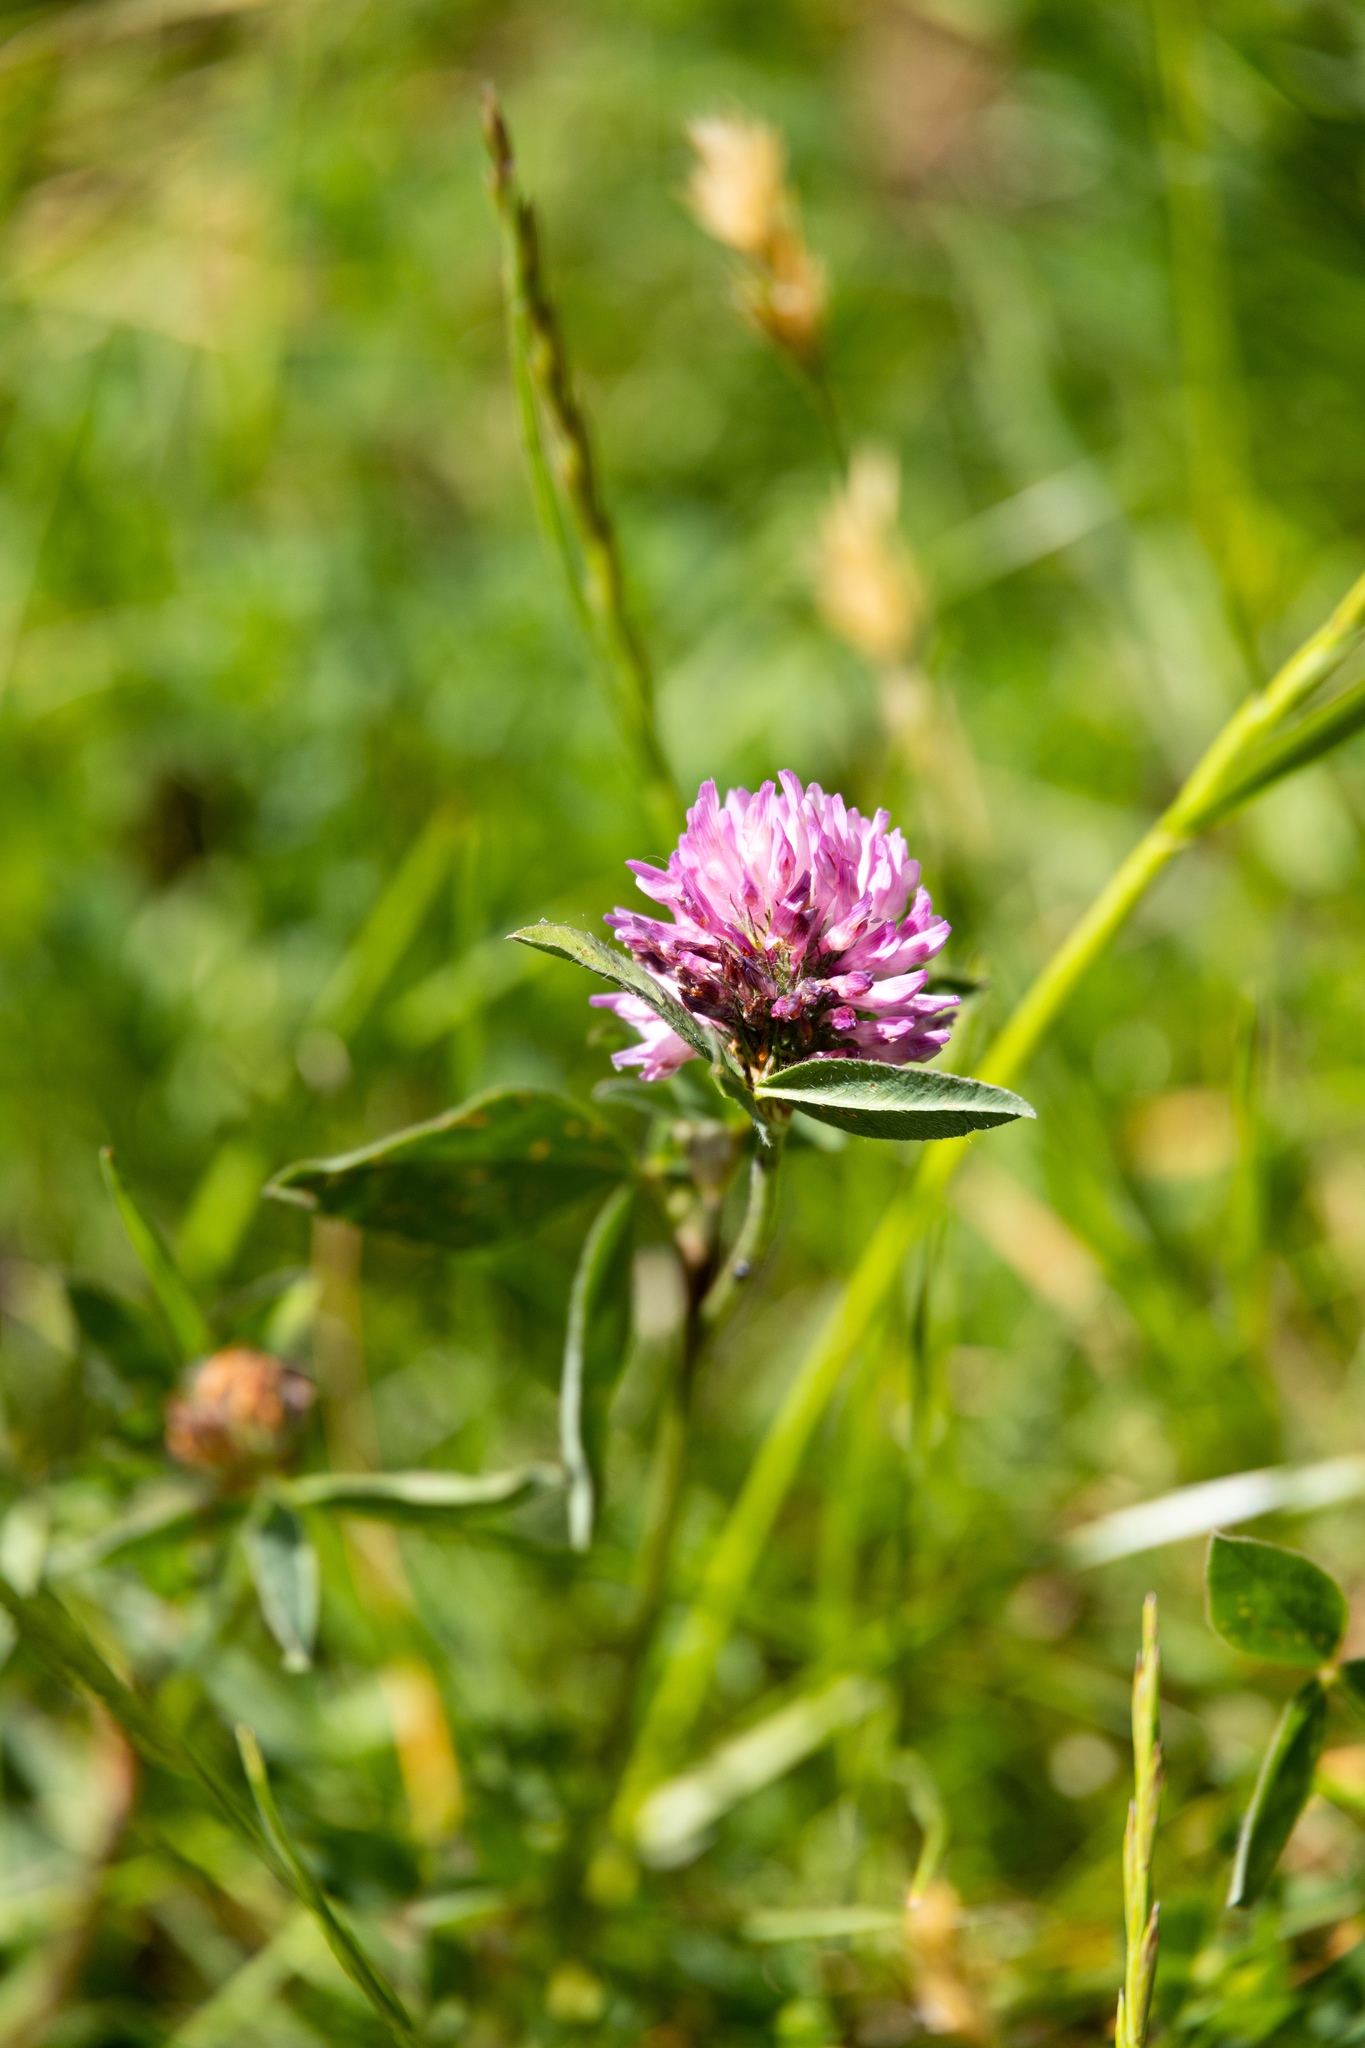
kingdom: Plantae
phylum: Tracheophyta
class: Magnoliopsida
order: Fabales
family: Fabaceae
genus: Trifolium
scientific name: Trifolium medium
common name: Zigzag clover
